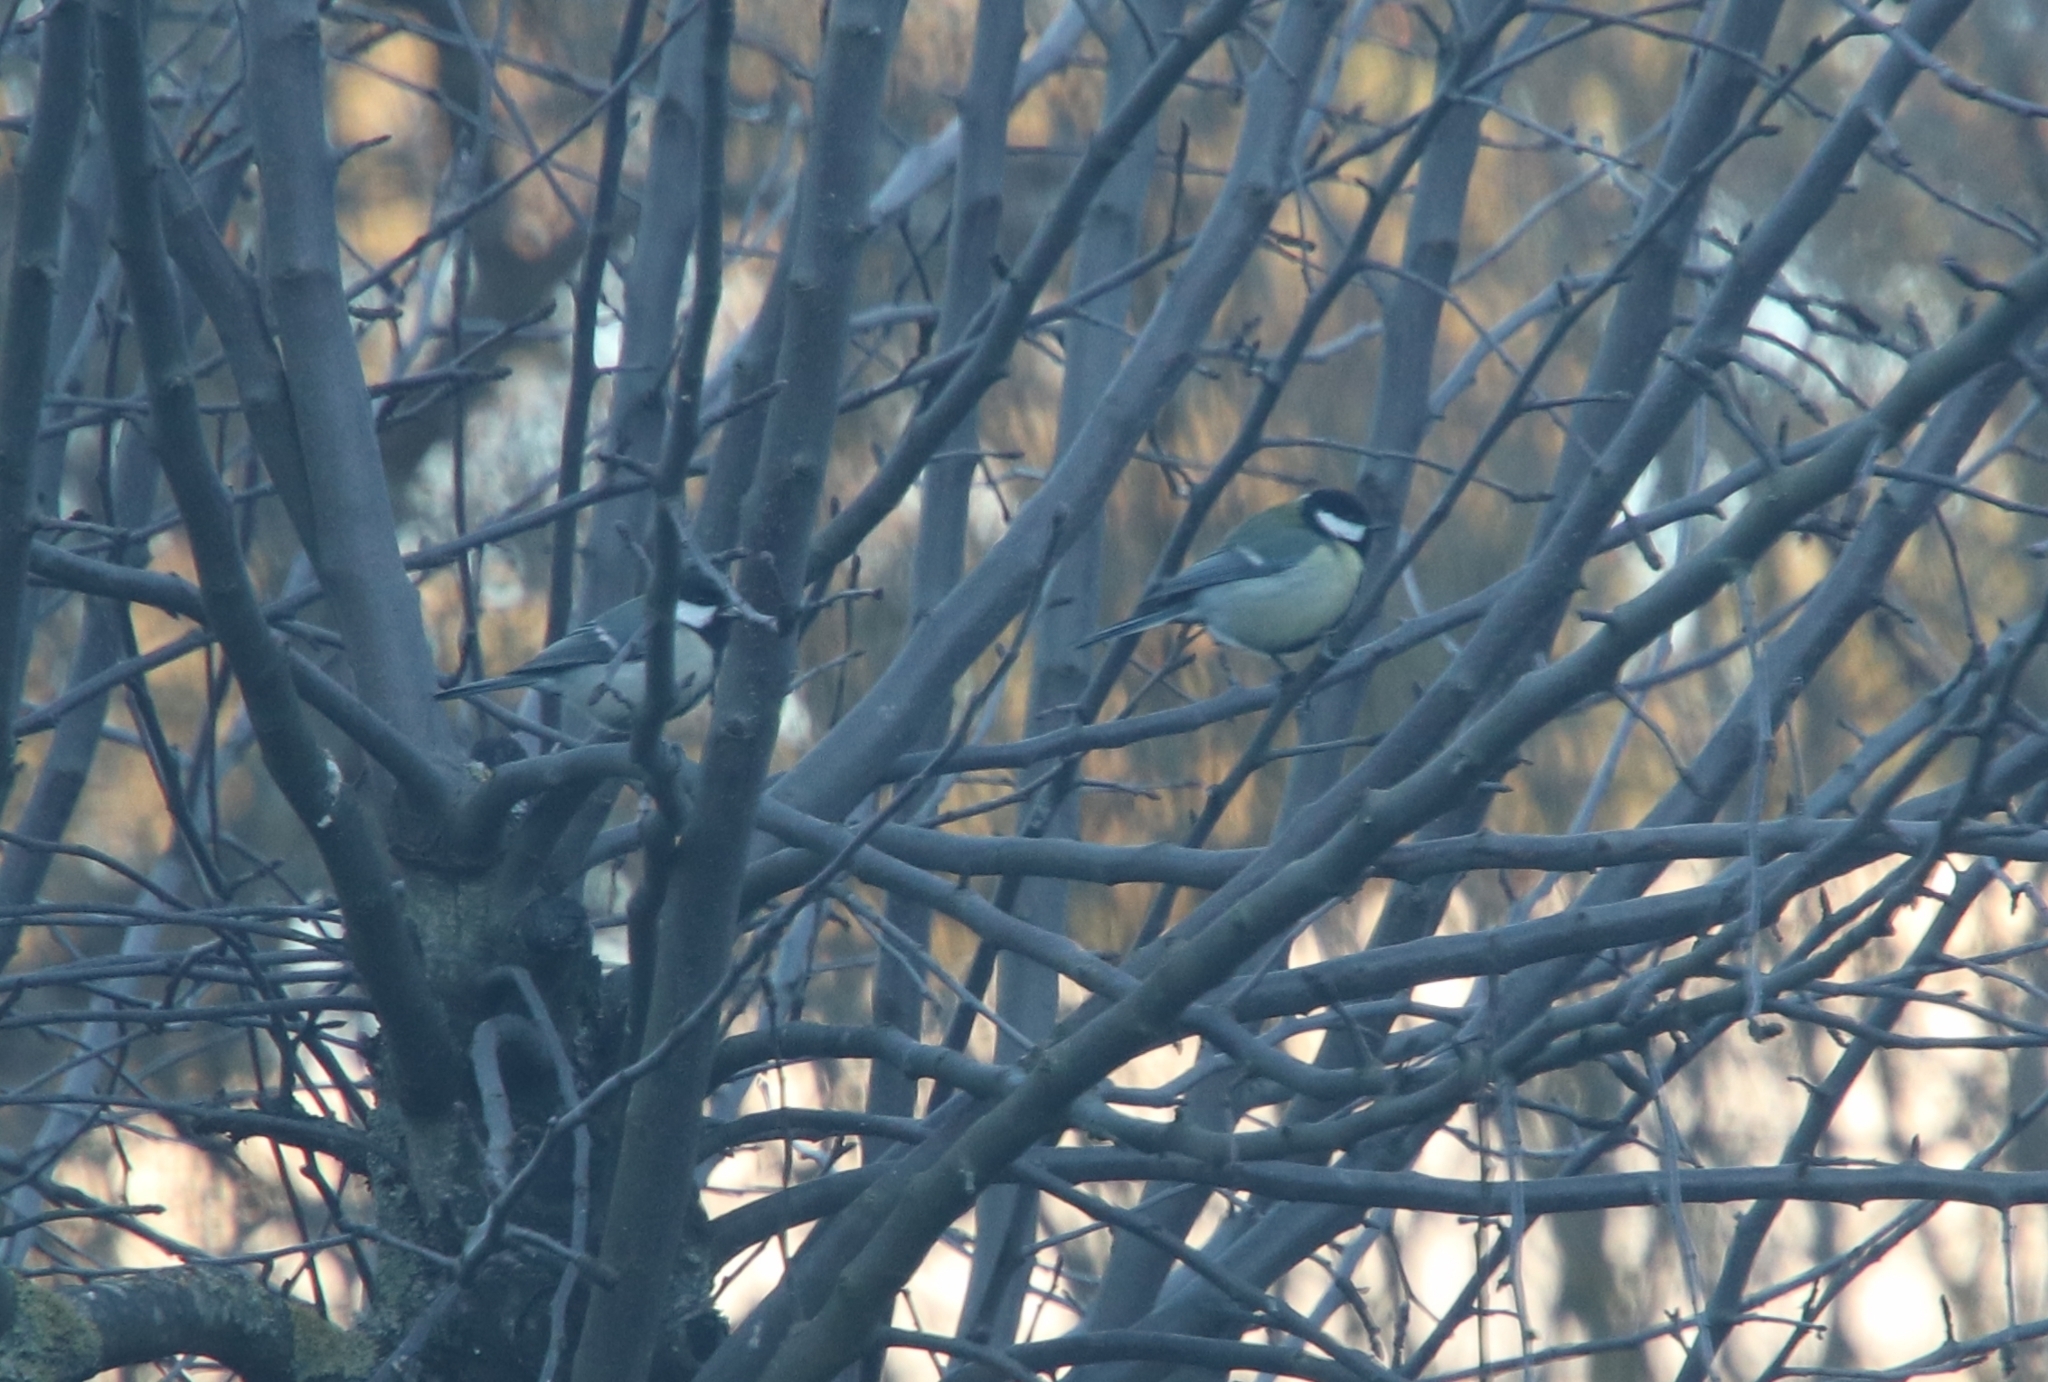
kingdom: Animalia
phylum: Chordata
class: Aves
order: Passeriformes
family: Paridae
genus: Parus
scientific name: Parus major
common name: Great tit
